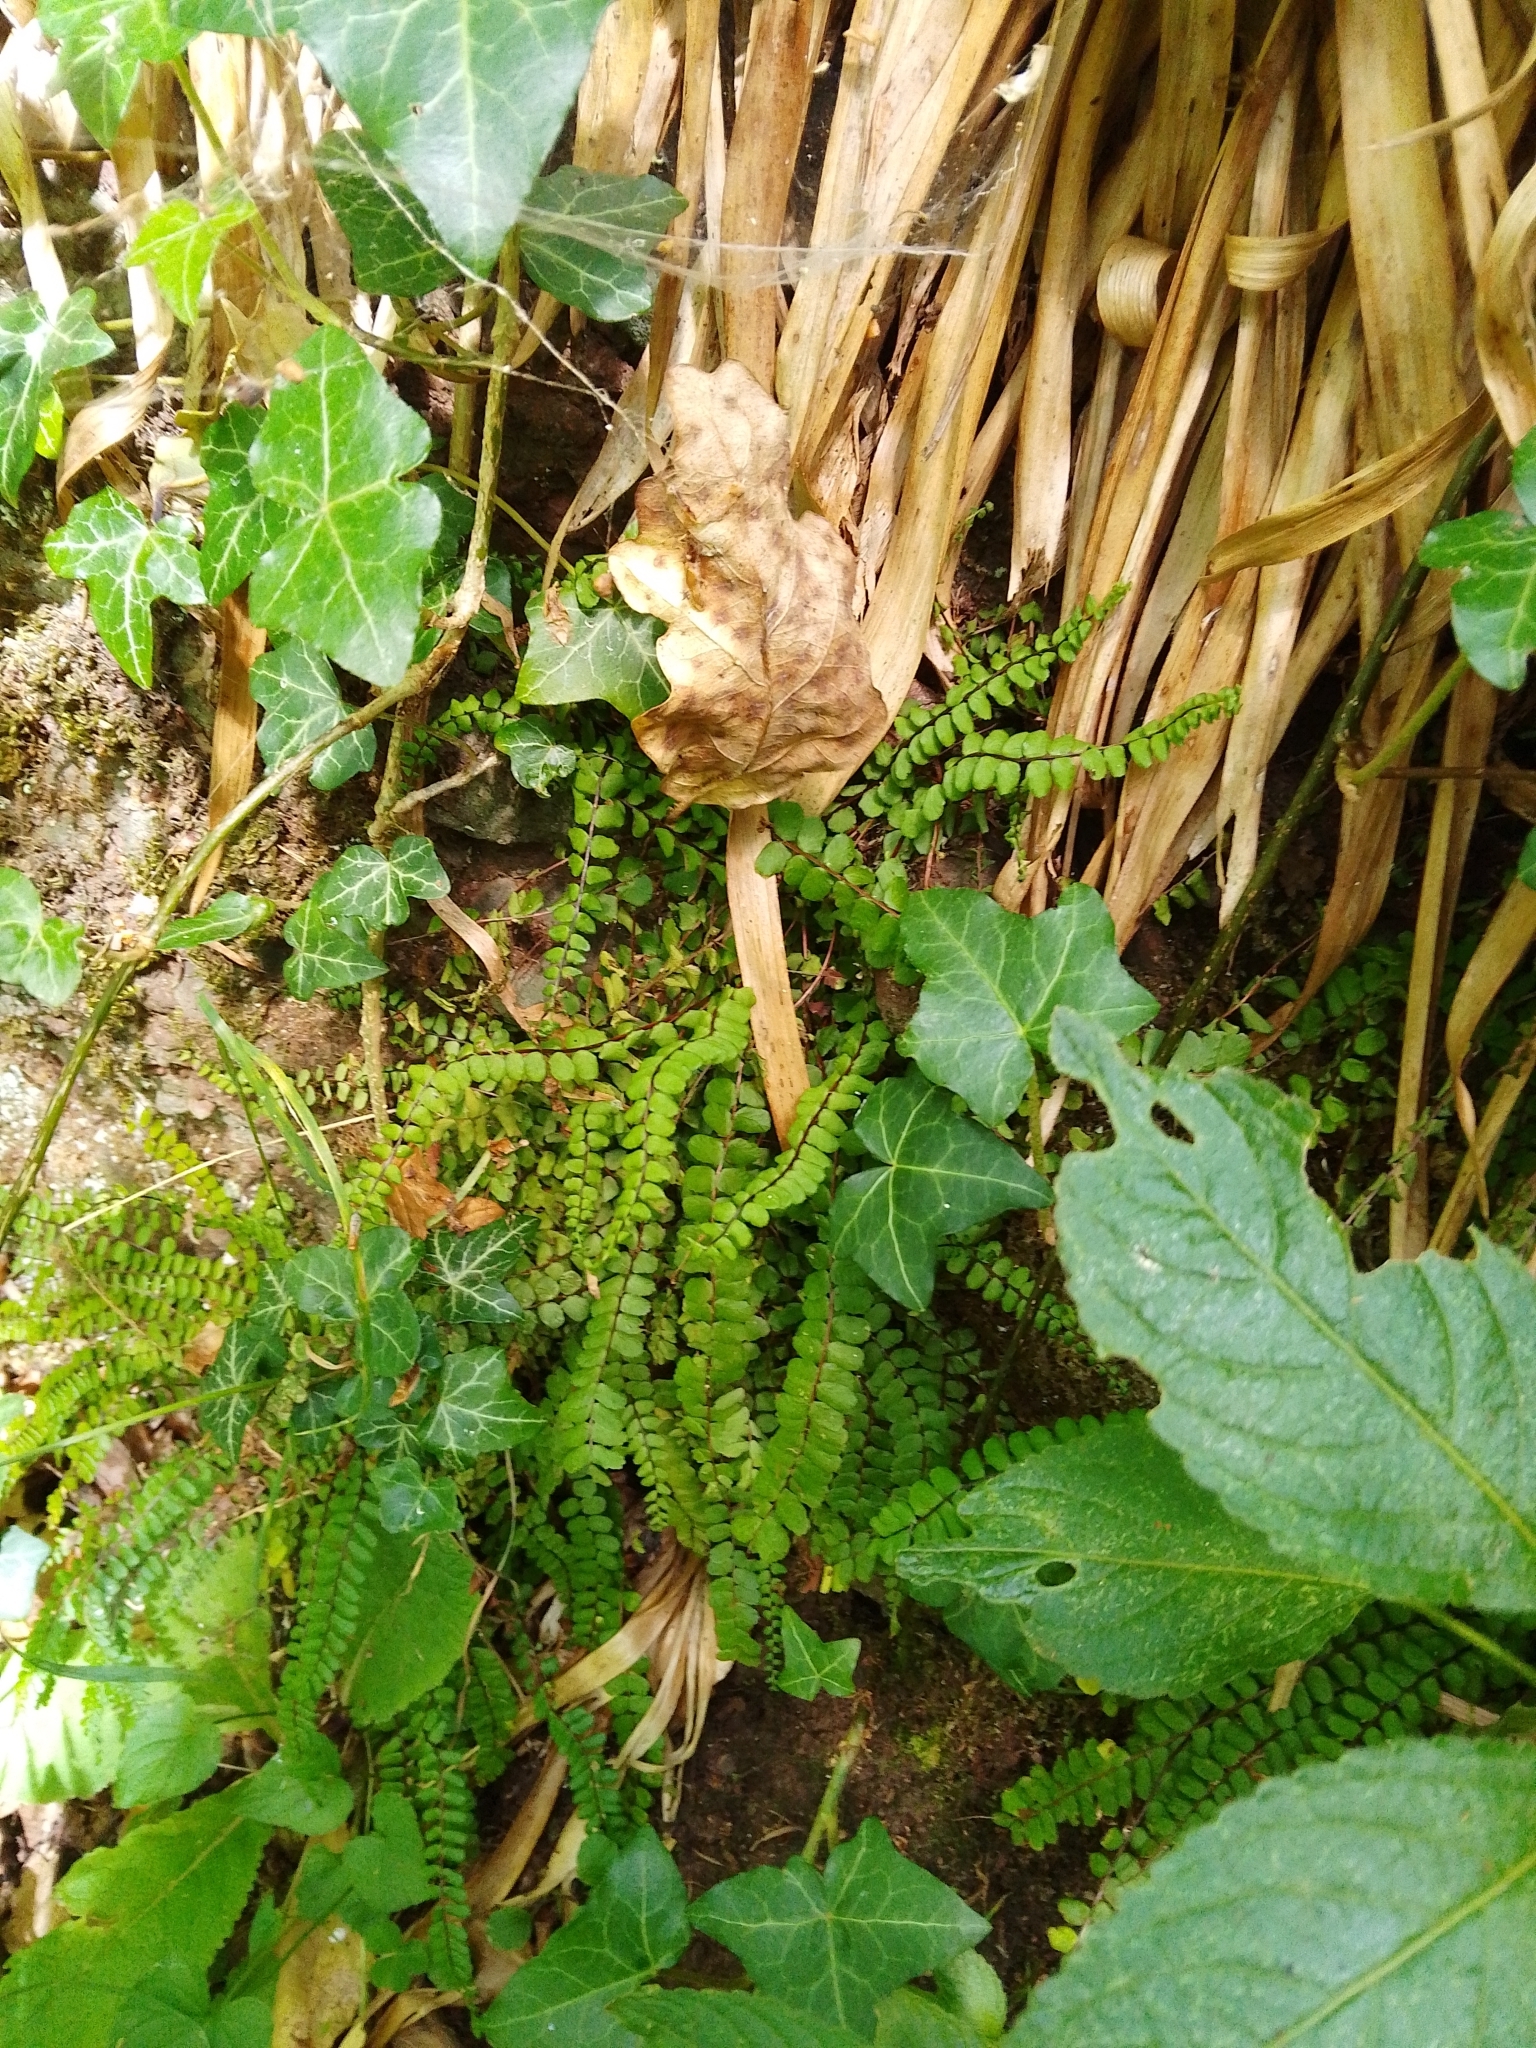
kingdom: Plantae
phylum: Tracheophyta
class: Polypodiopsida
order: Polypodiales
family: Aspleniaceae
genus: Asplenium
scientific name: Asplenium trichomanes
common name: Maidenhair spleenwort
